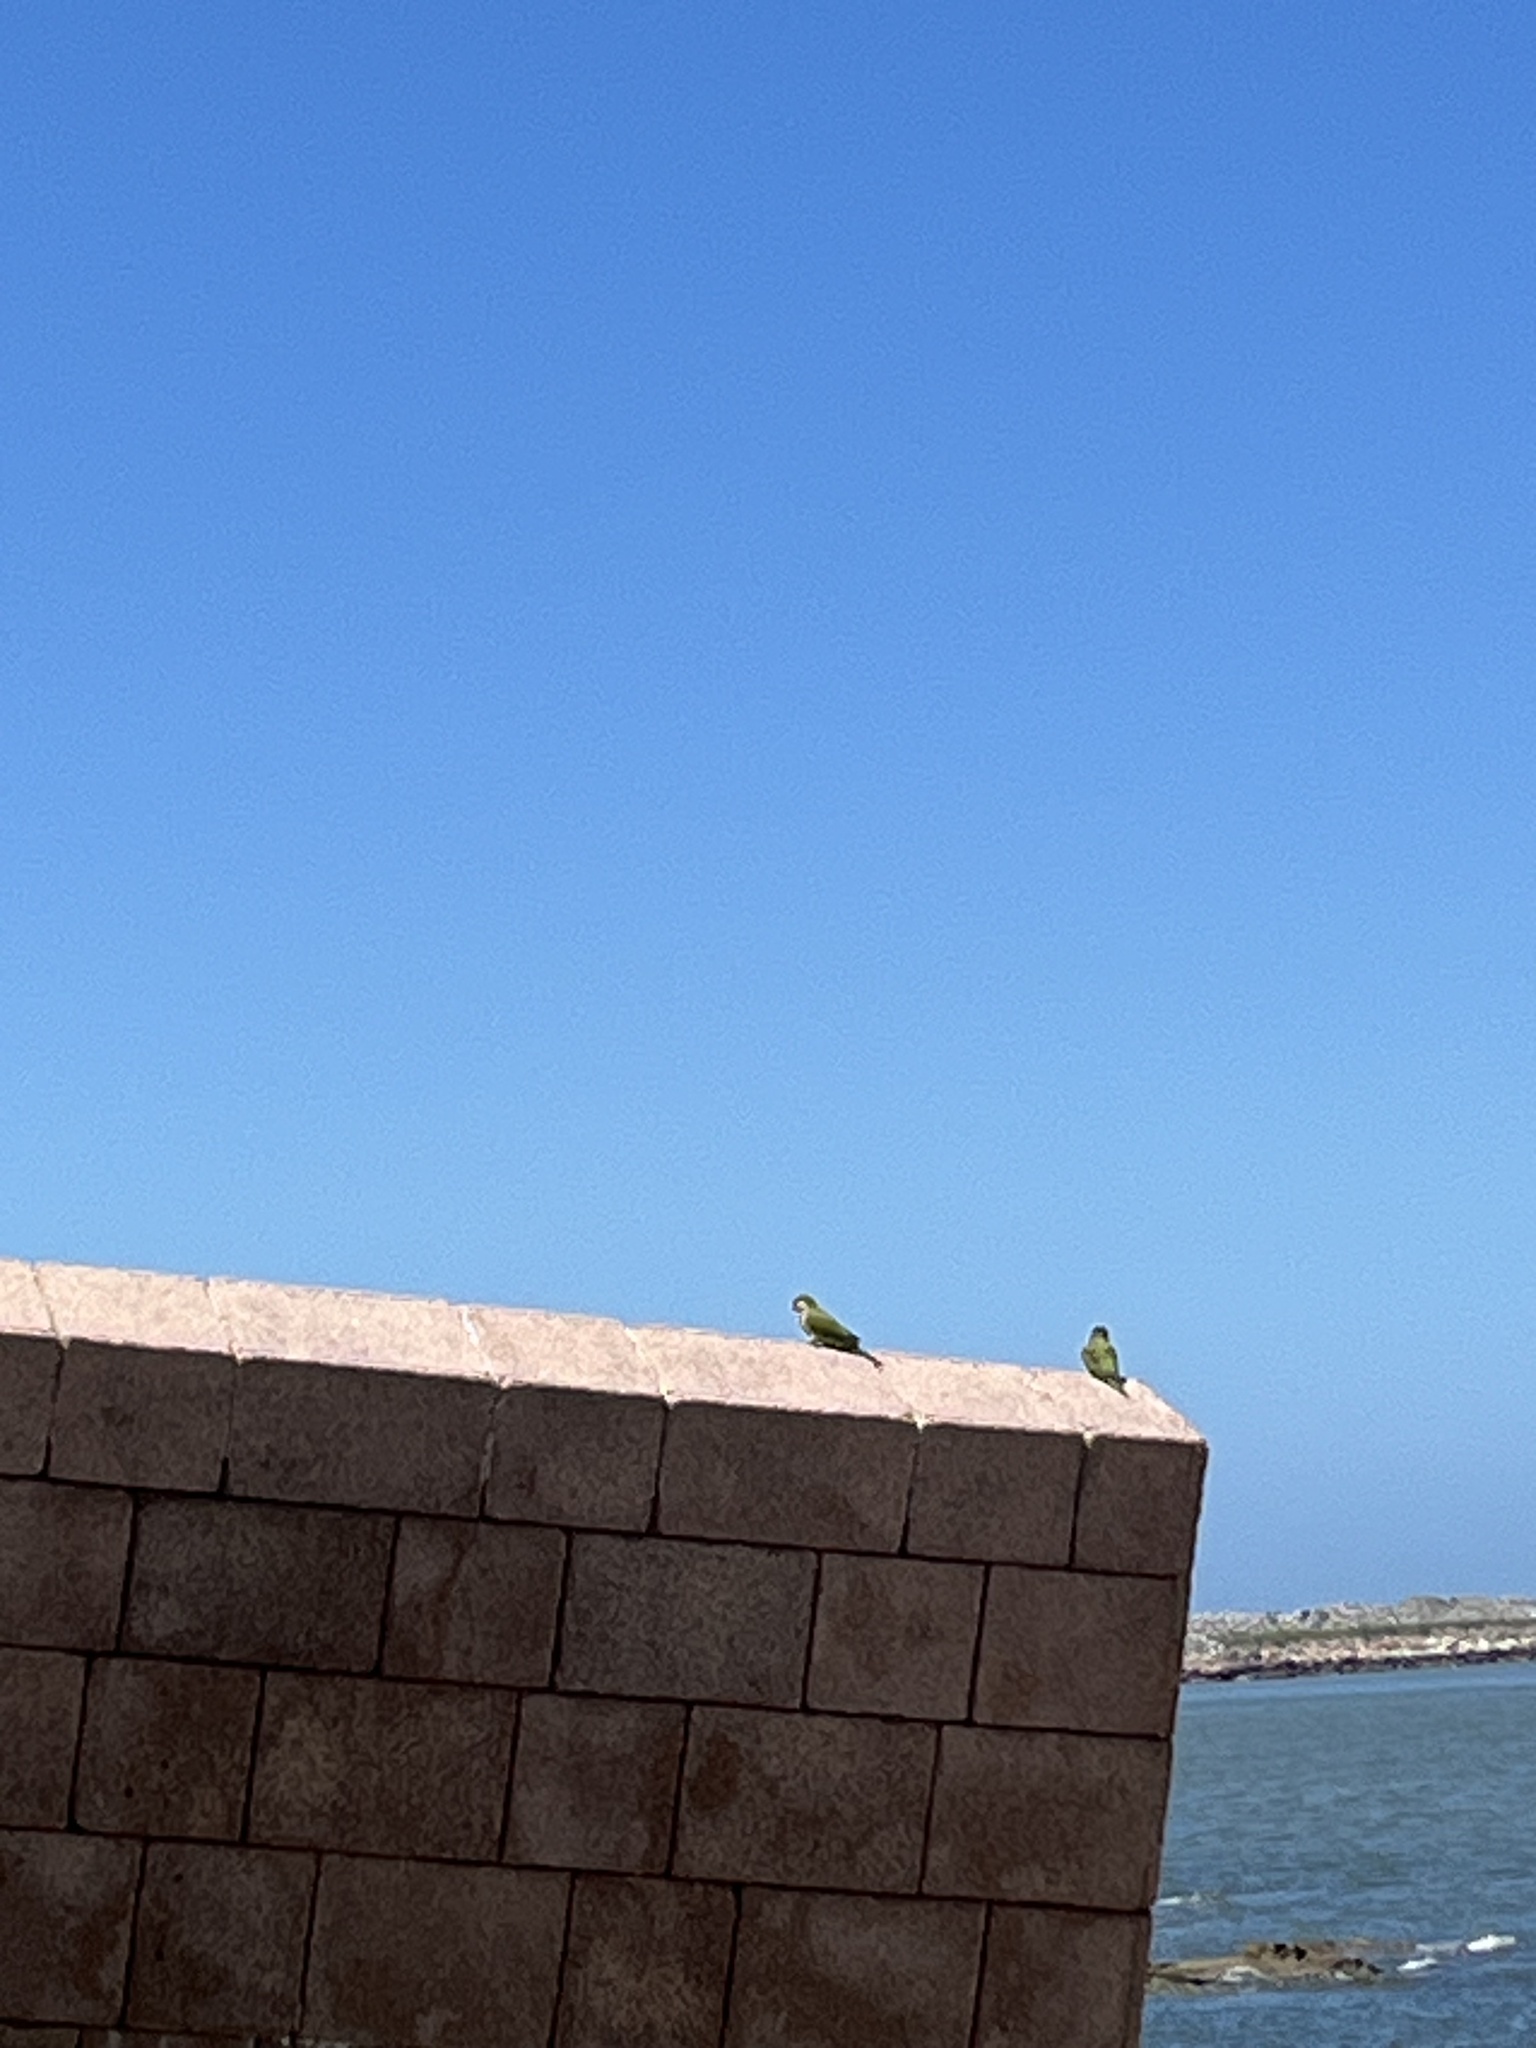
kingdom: Animalia
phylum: Chordata
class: Aves
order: Psittaciformes
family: Psittacidae
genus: Myiopsitta
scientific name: Myiopsitta monachus
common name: Monk parakeet
